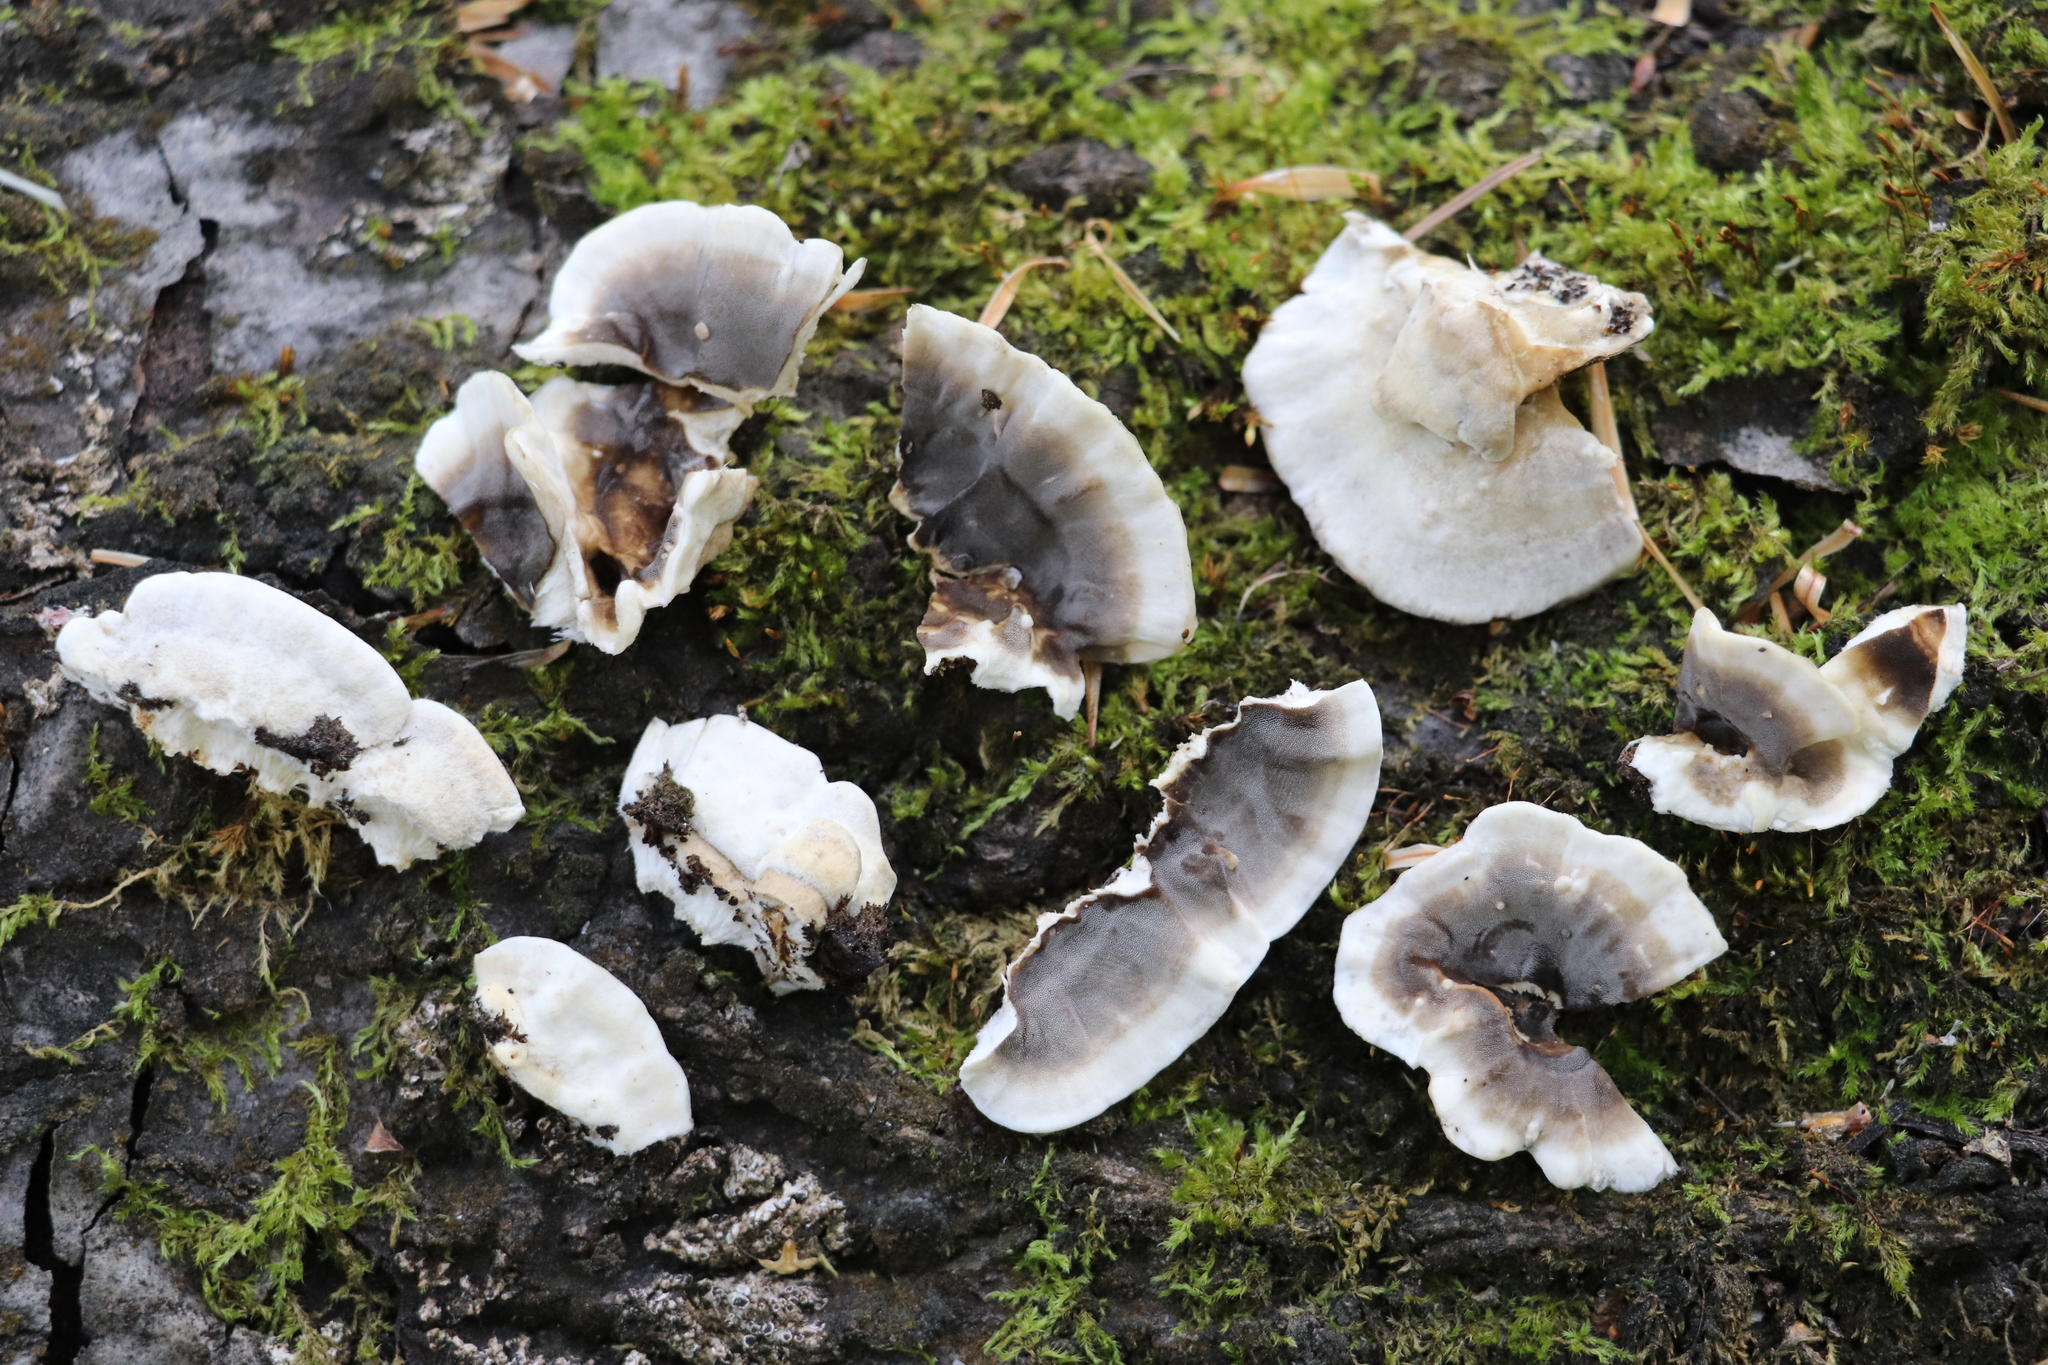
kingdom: Fungi
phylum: Basidiomycota
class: Agaricomycetes
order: Polyporales
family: Phanerochaetaceae
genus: Bjerkandera
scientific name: Bjerkandera adusta
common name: Smoky bracket
